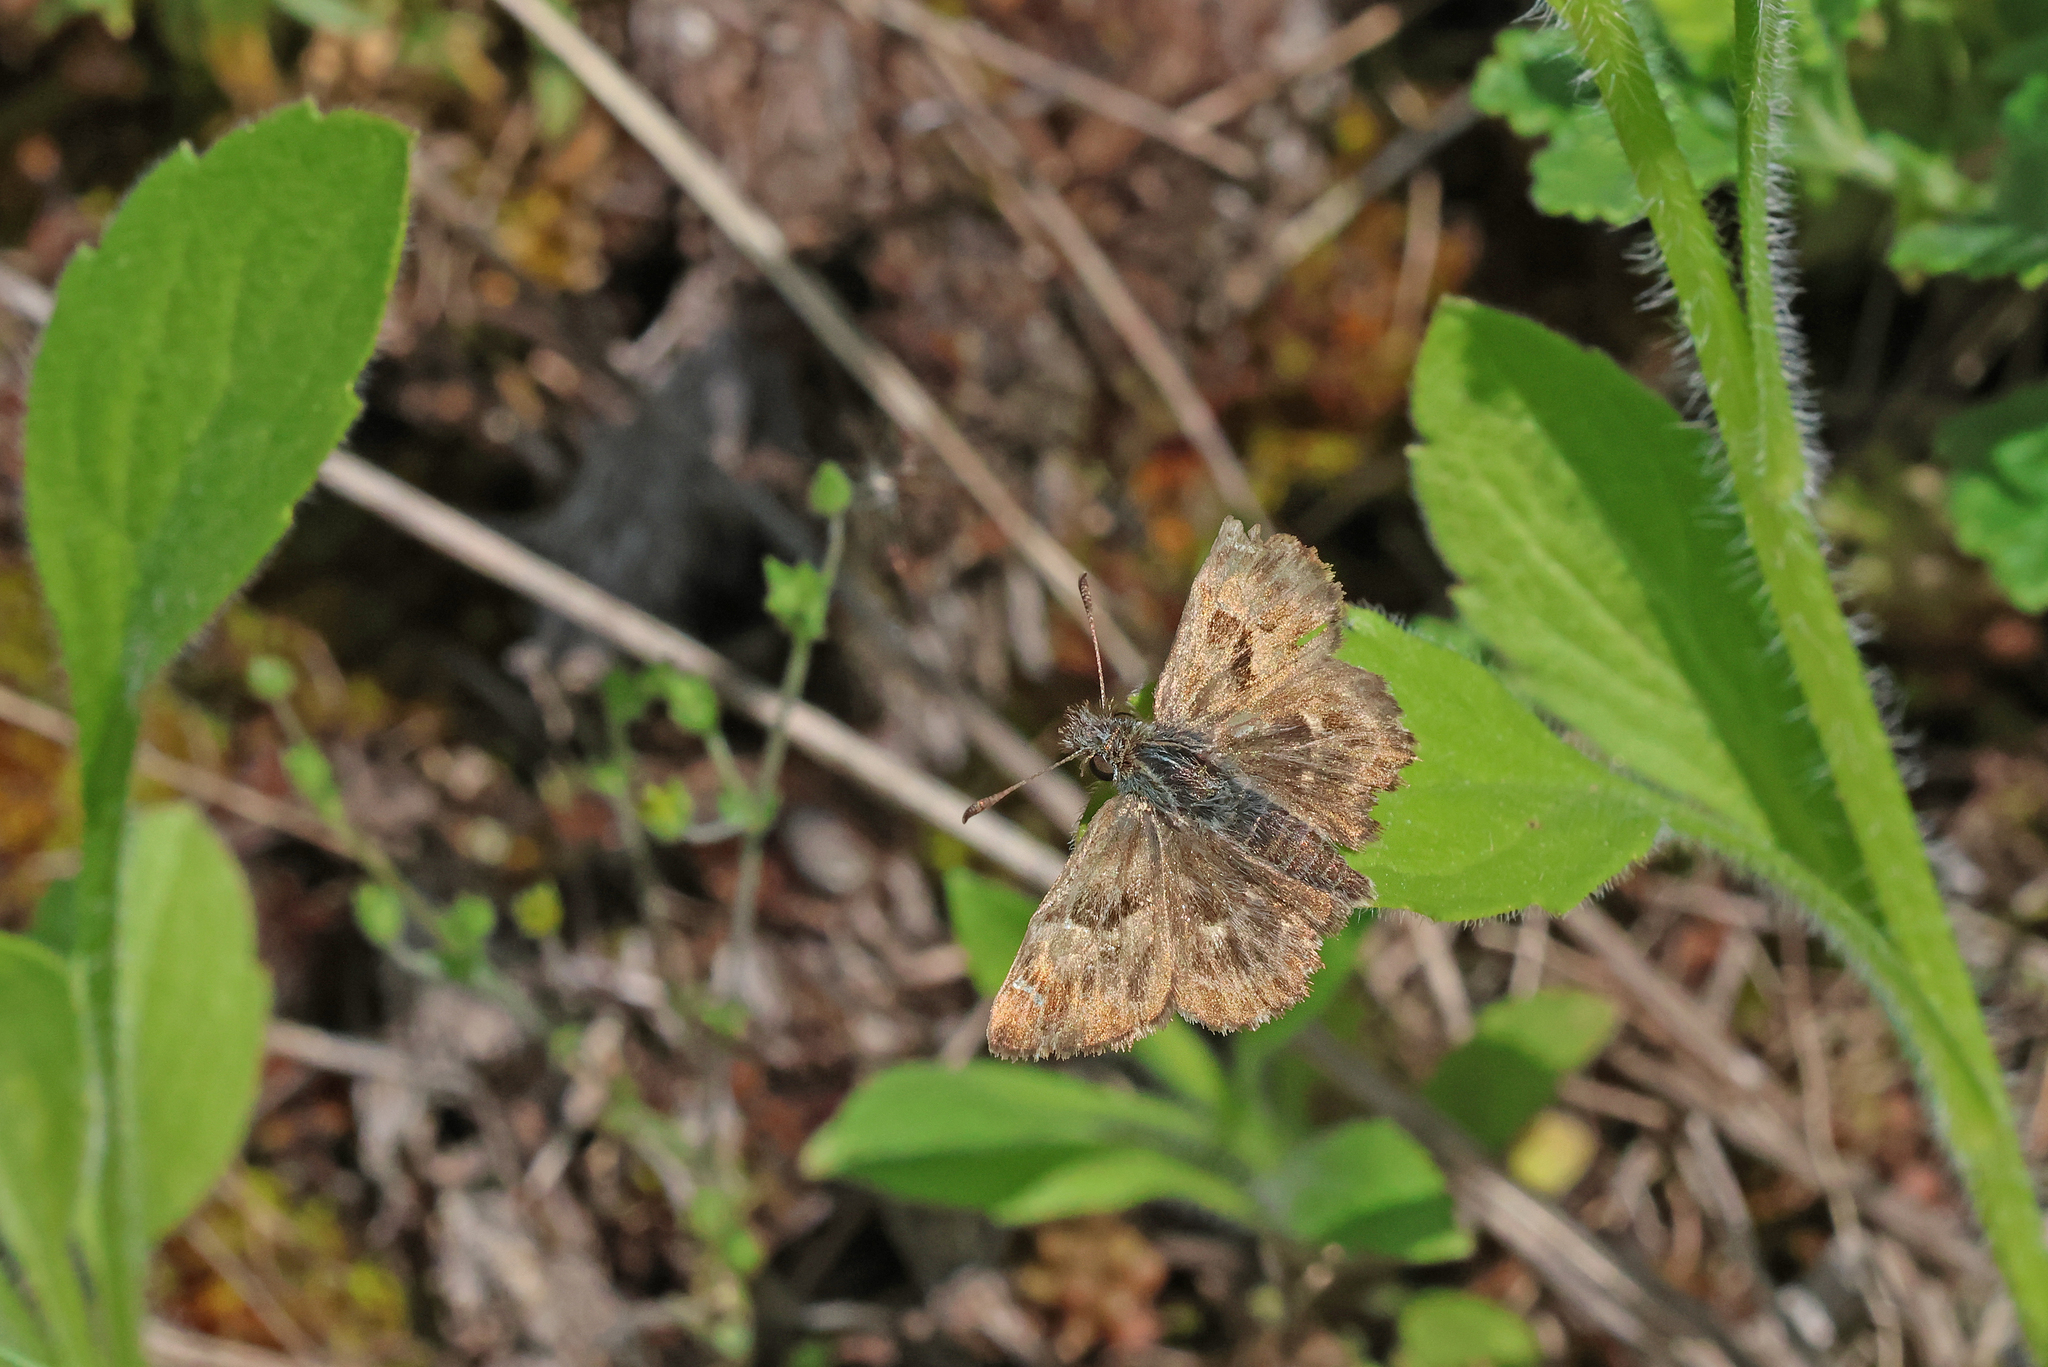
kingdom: Animalia
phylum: Arthropoda
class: Insecta
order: Lepidoptera
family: Hesperiidae
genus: Carcharodus
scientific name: Carcharodus alceae
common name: Mallow skipper
